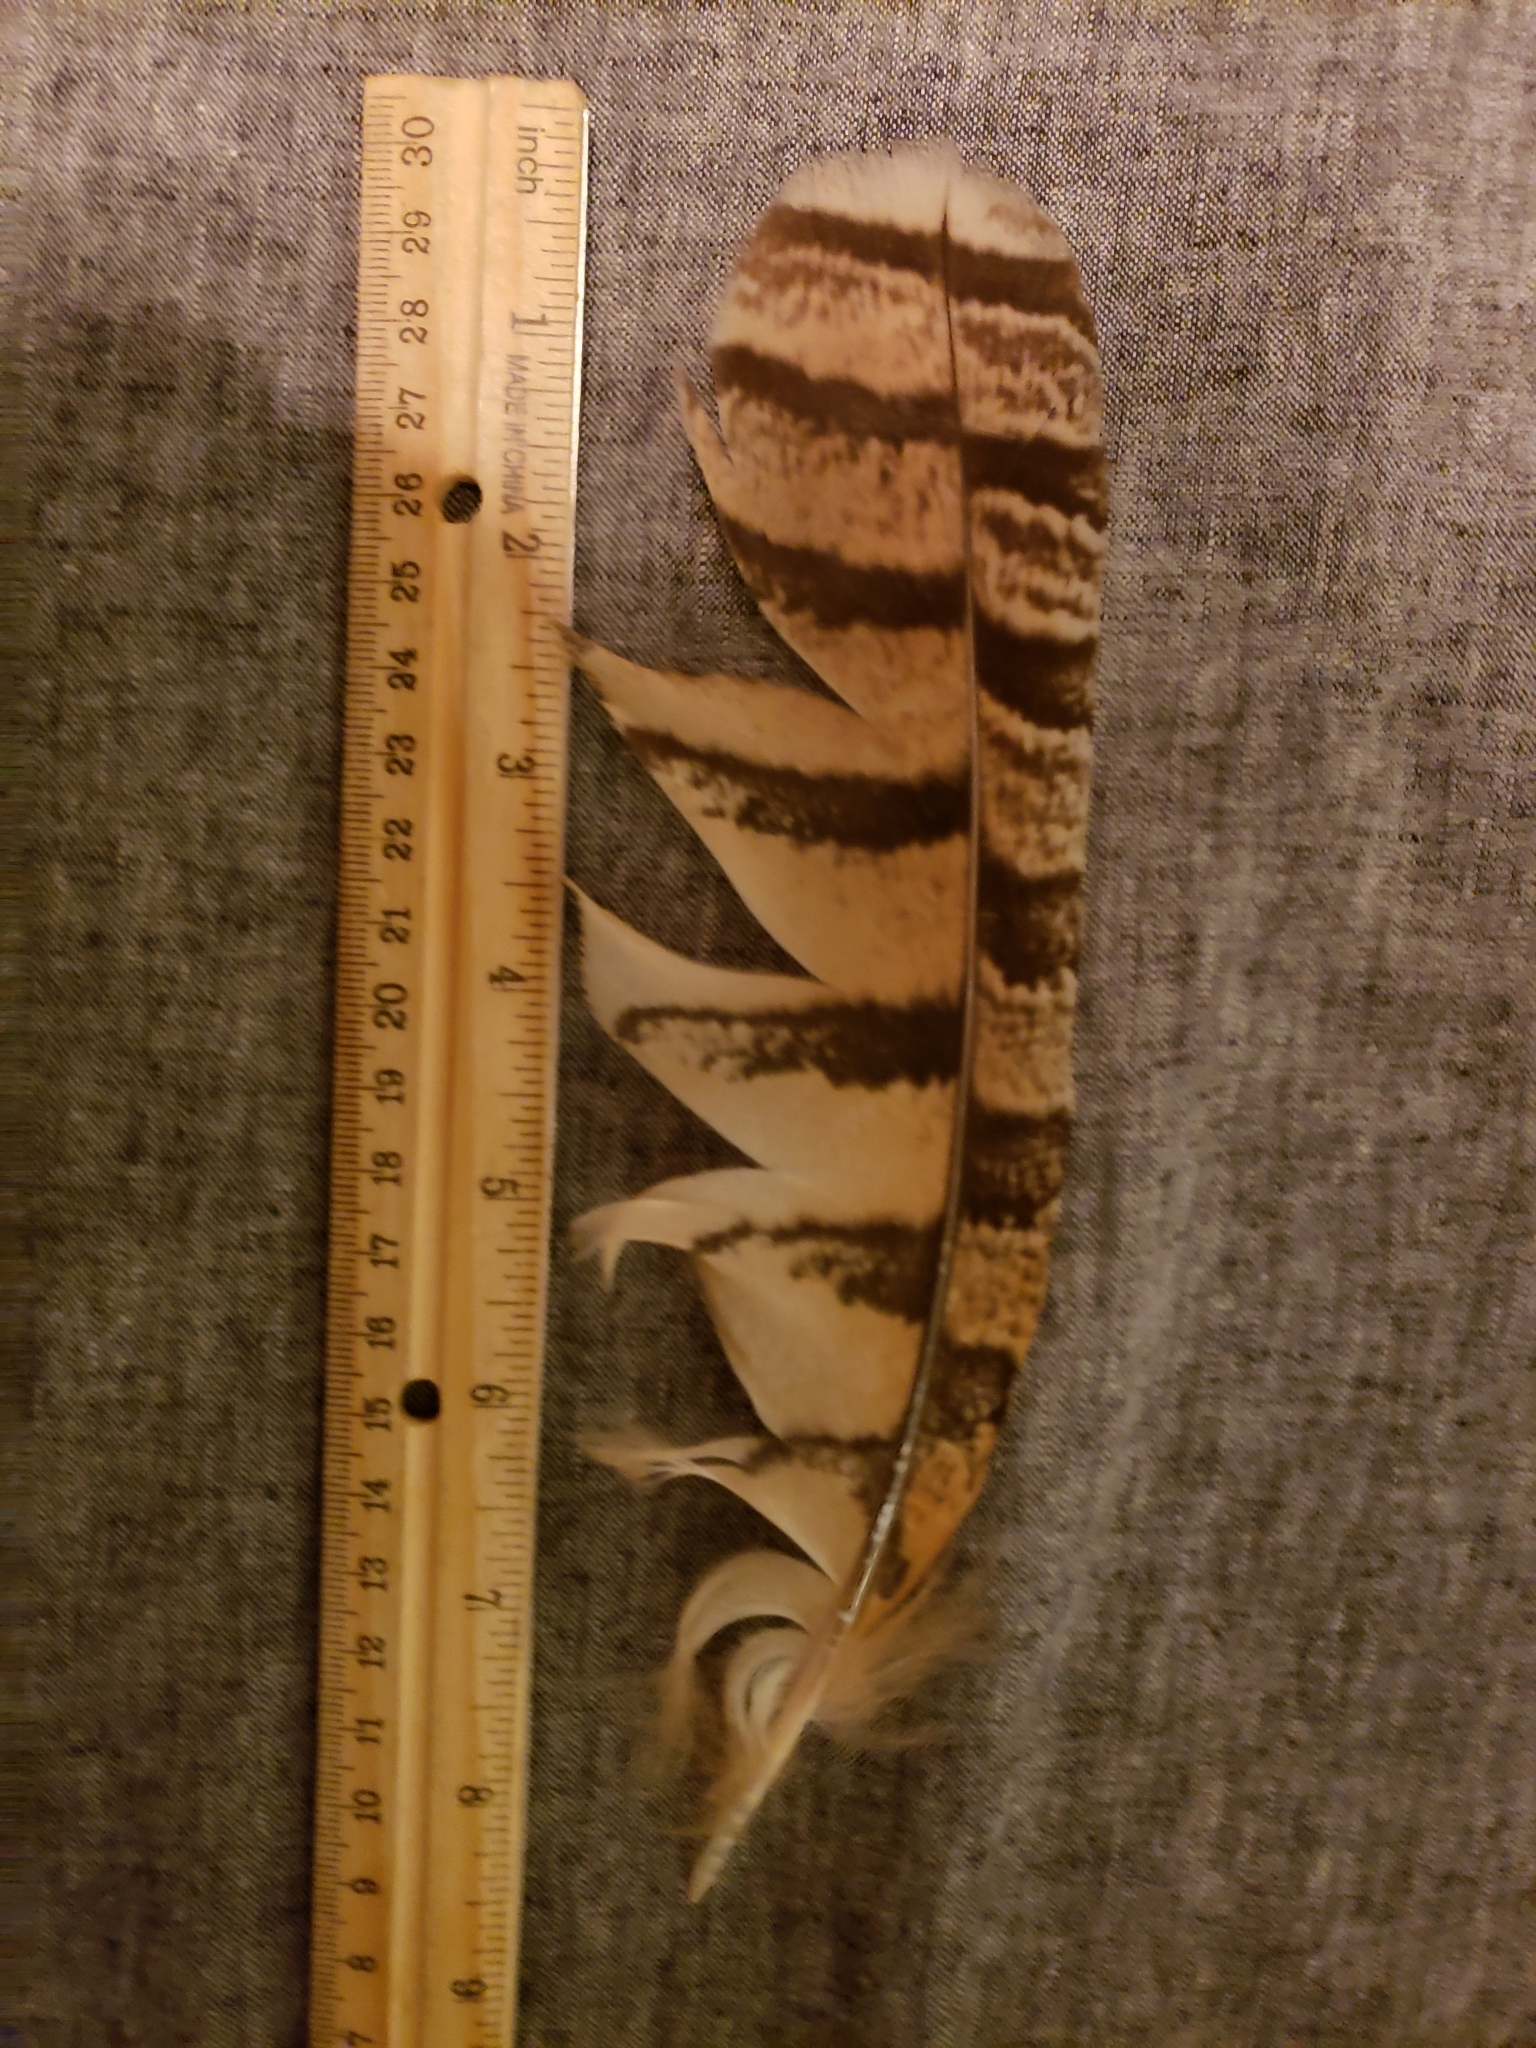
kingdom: Animalia
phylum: Chordata
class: Aves
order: Strigiformes
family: Strigidae
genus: Bubo
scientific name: Bubo virginianus
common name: Great horned owl
